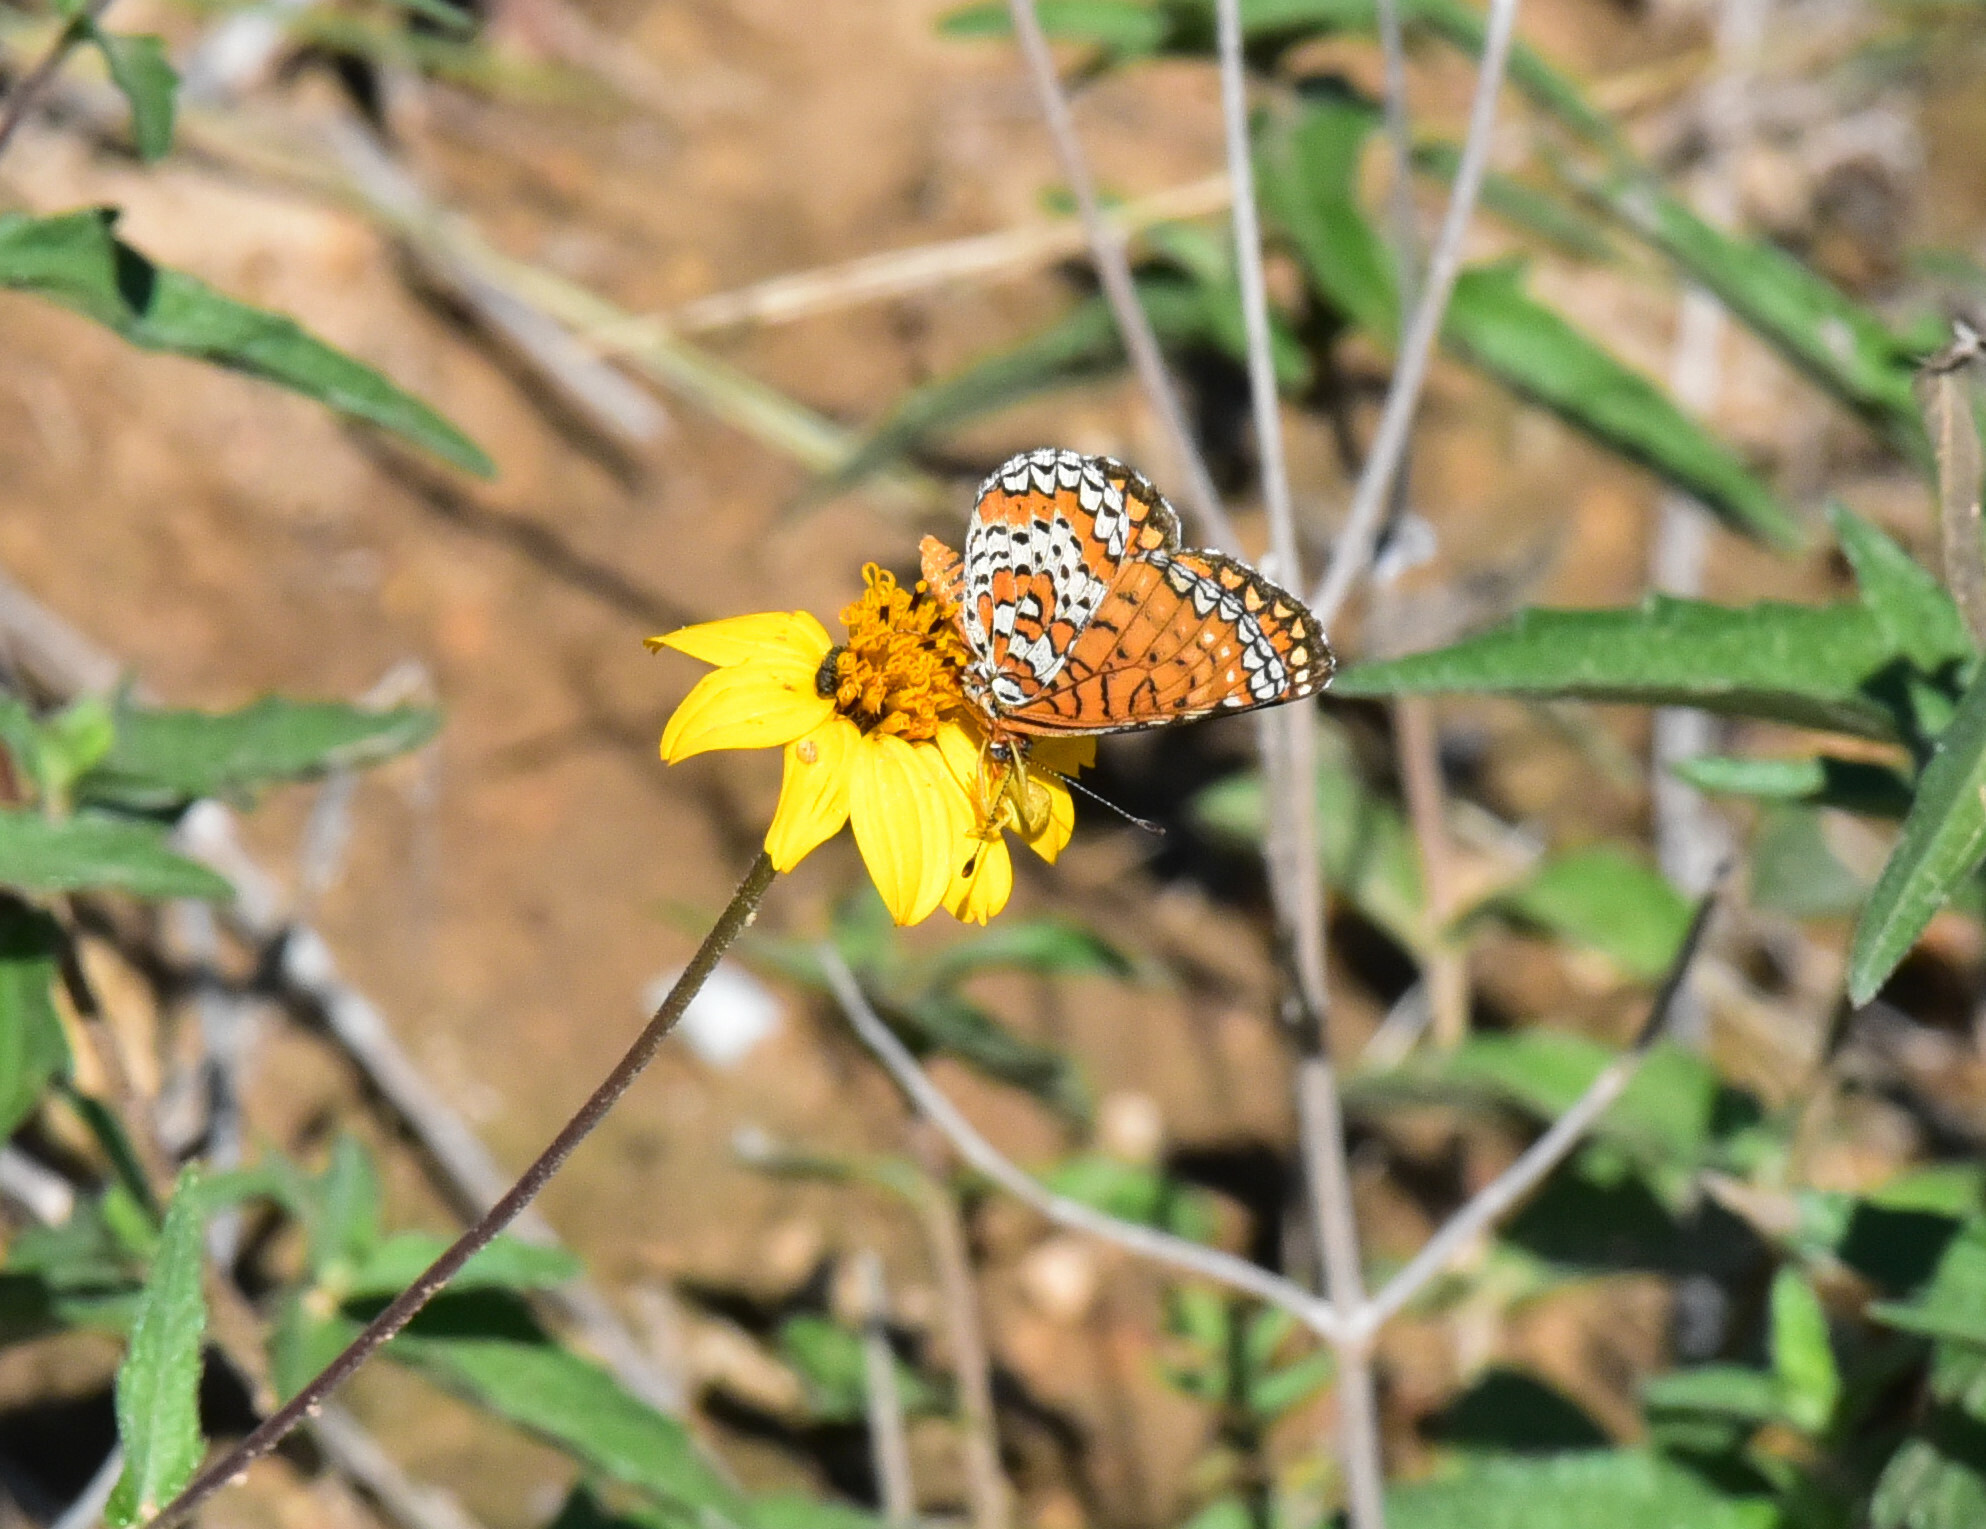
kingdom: Animalia
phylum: Arthropoda
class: Insecta
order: Lepidoptera
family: Nymphalidae
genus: Poladryas
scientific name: Poladryas minuta
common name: Dotted checkerspot
